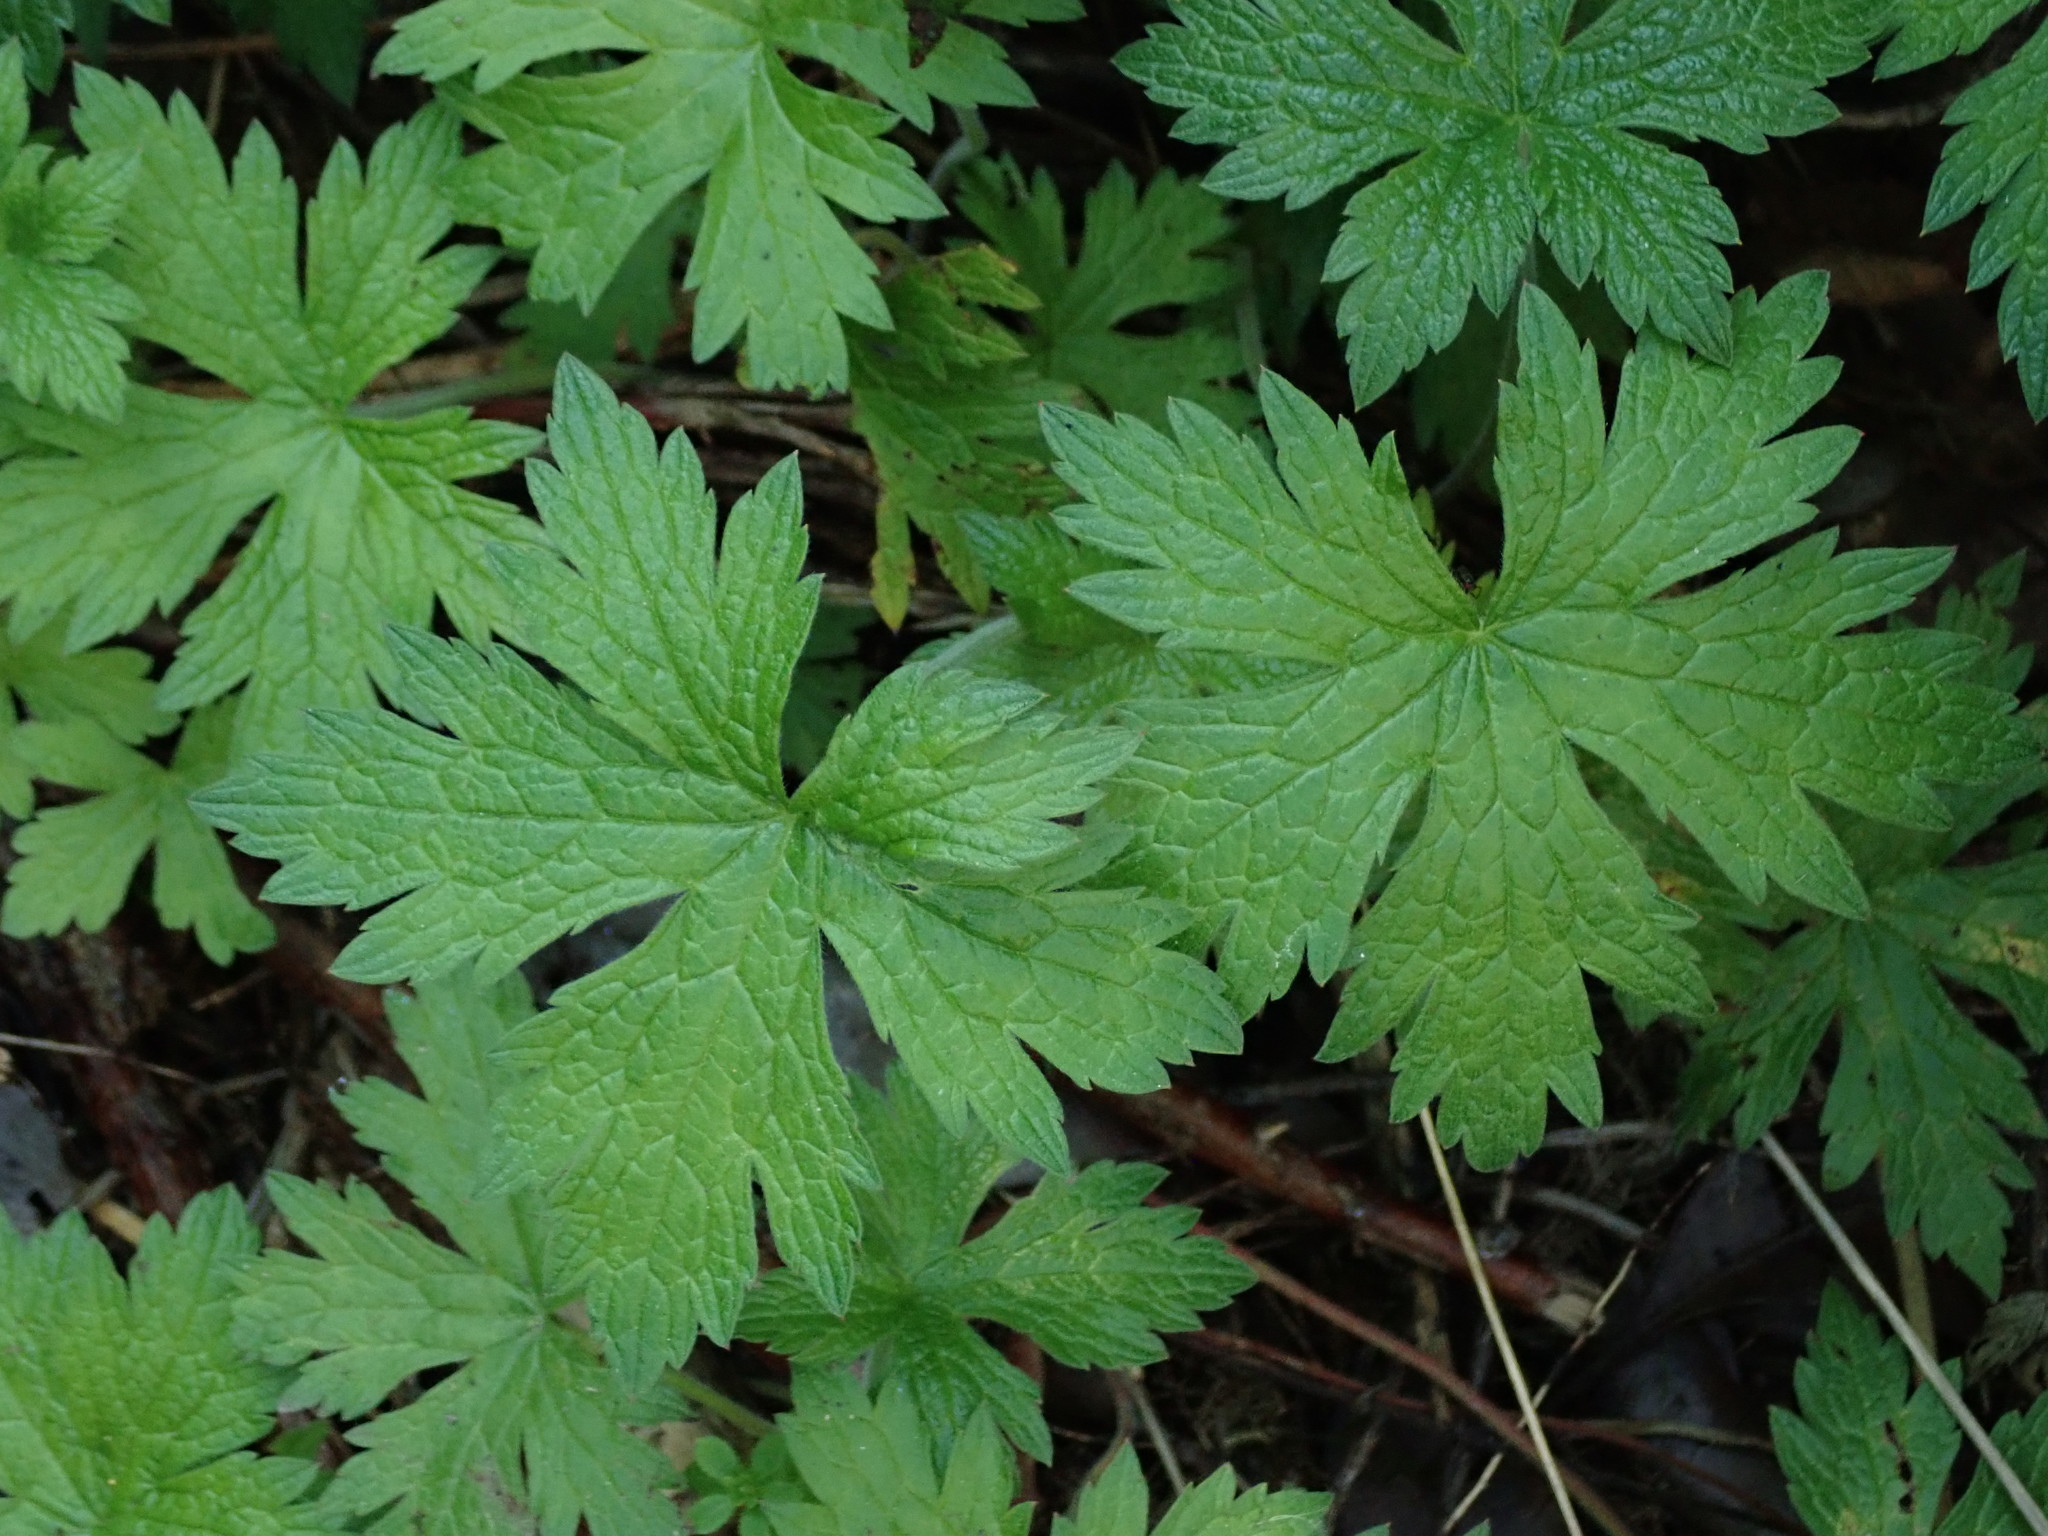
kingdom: Plantae
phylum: Tracheophyta
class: Magnoliopsida
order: Geraniales
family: Geraniaceae
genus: Geranium
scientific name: Geranium oxonianum
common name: Druce's crane's-bill
